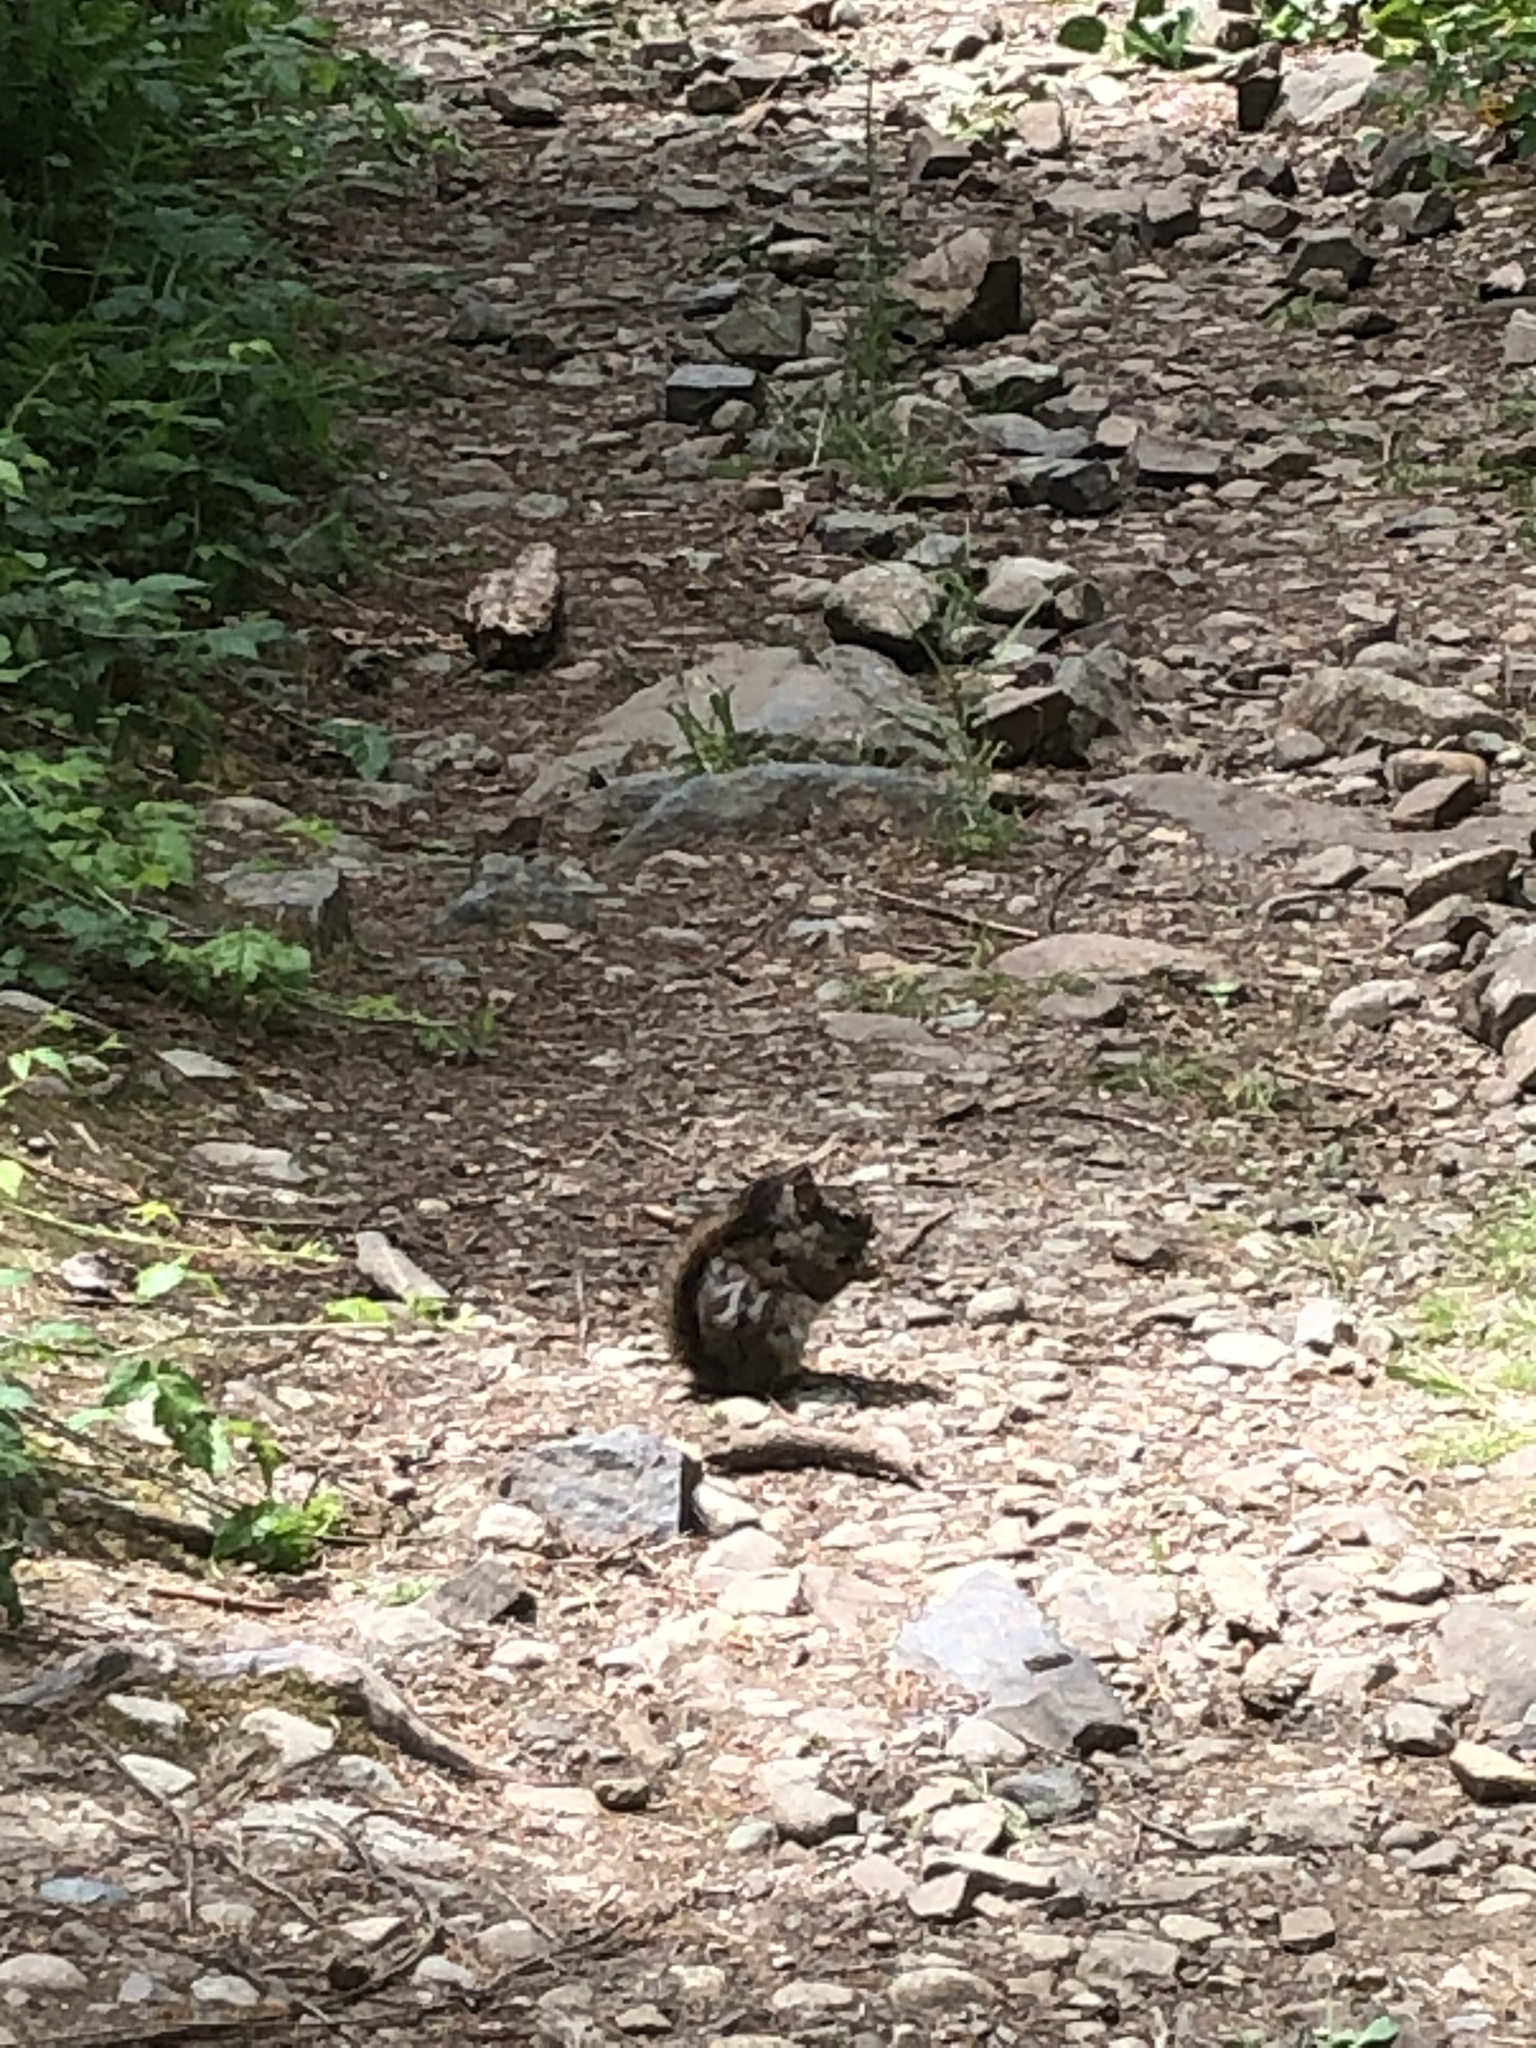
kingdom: Animalia
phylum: Chordata
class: Mammalia
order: Rodentia
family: Sciuridae
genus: Tamiasciurus
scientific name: Tamiasciurus hudsonicus
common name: Red squirrel
